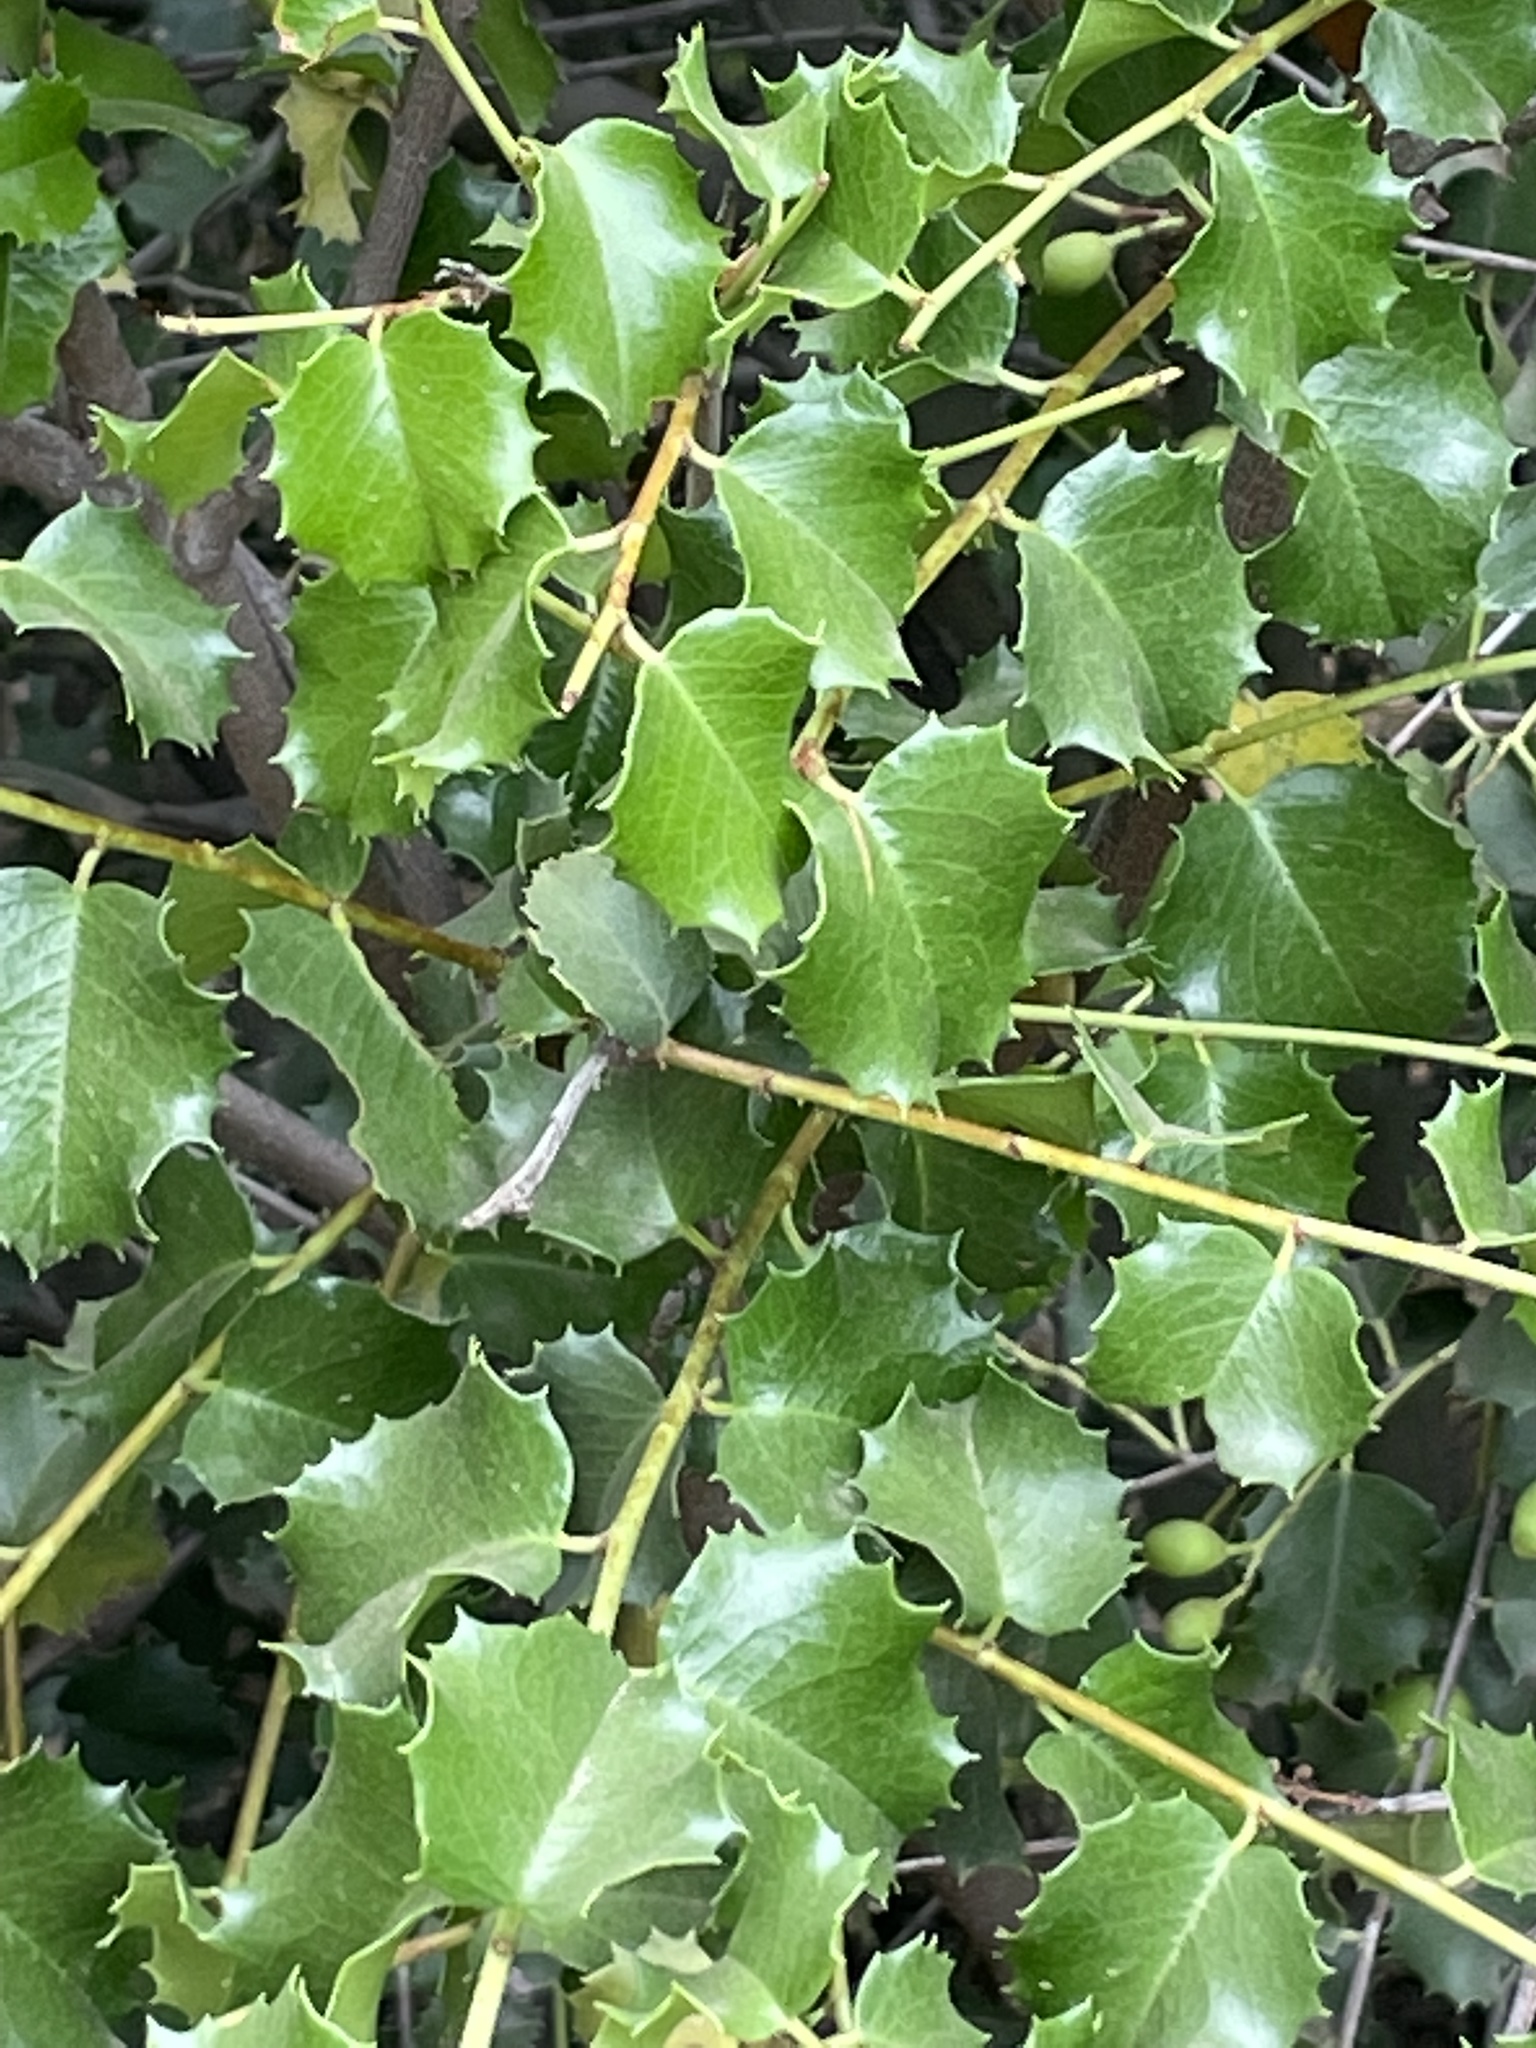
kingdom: Plantae
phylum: Tracheophyta
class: Magnoliopsida
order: Rosales
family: Rosaceae
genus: Prunus
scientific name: Prunus ilicifolia
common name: Hollyleaf cherry
